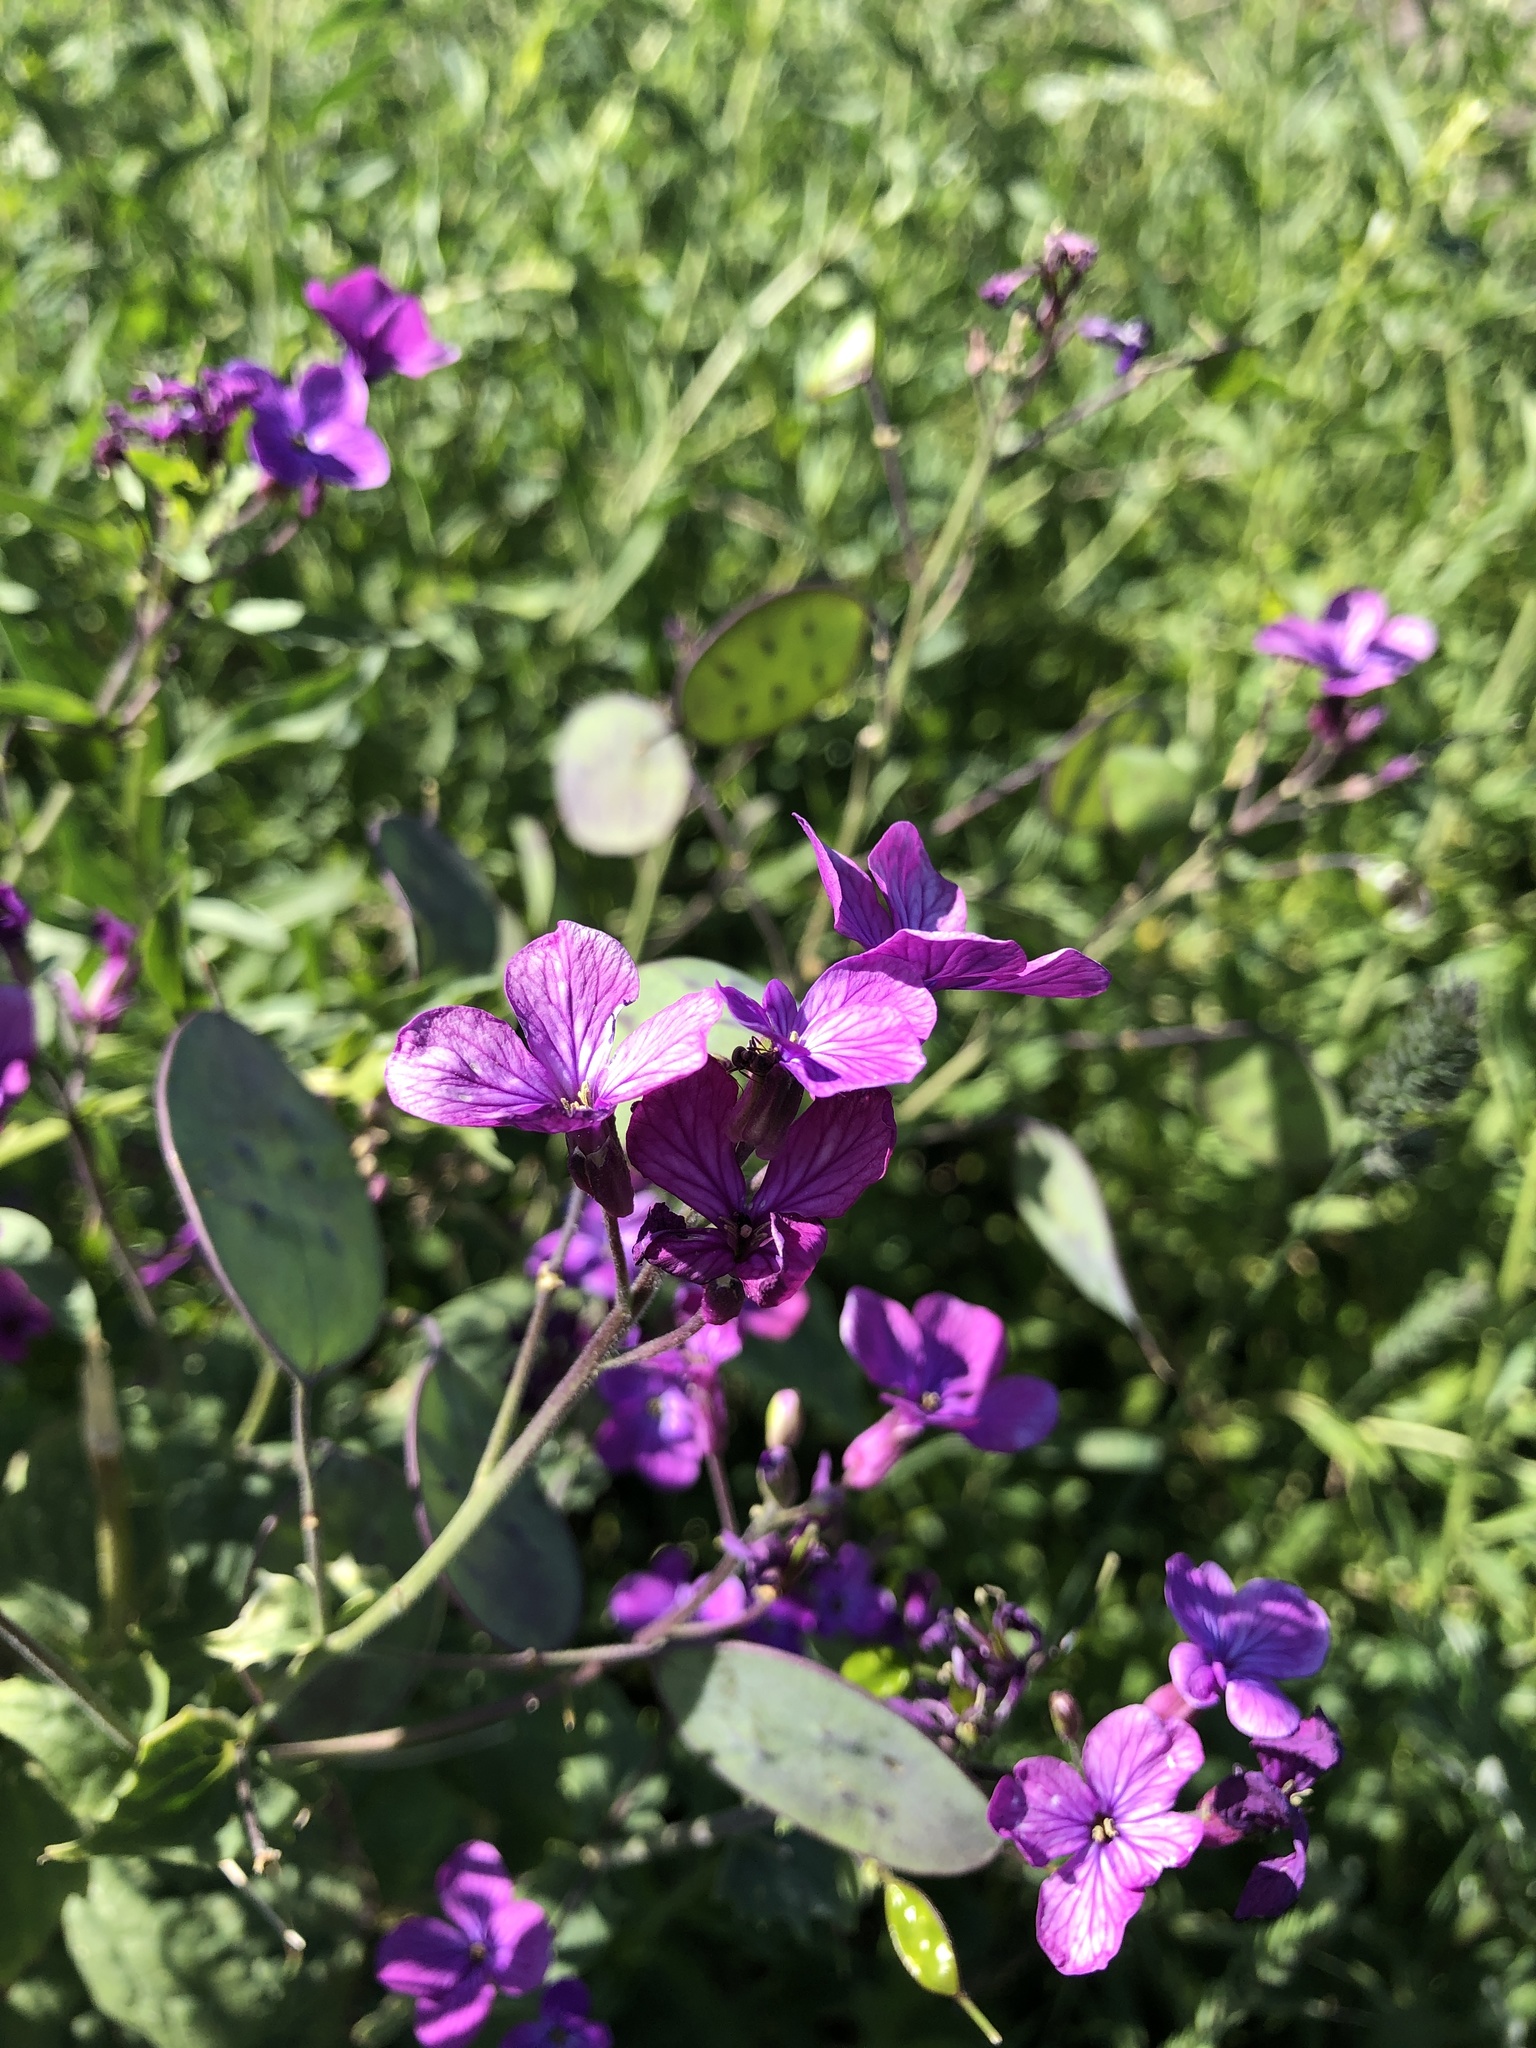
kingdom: Plantae
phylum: Tracheophyta
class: Magnoliopsida
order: Brassicales
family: Brassicaceae
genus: Lunaria
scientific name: Lunaria annua
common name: Honesty
